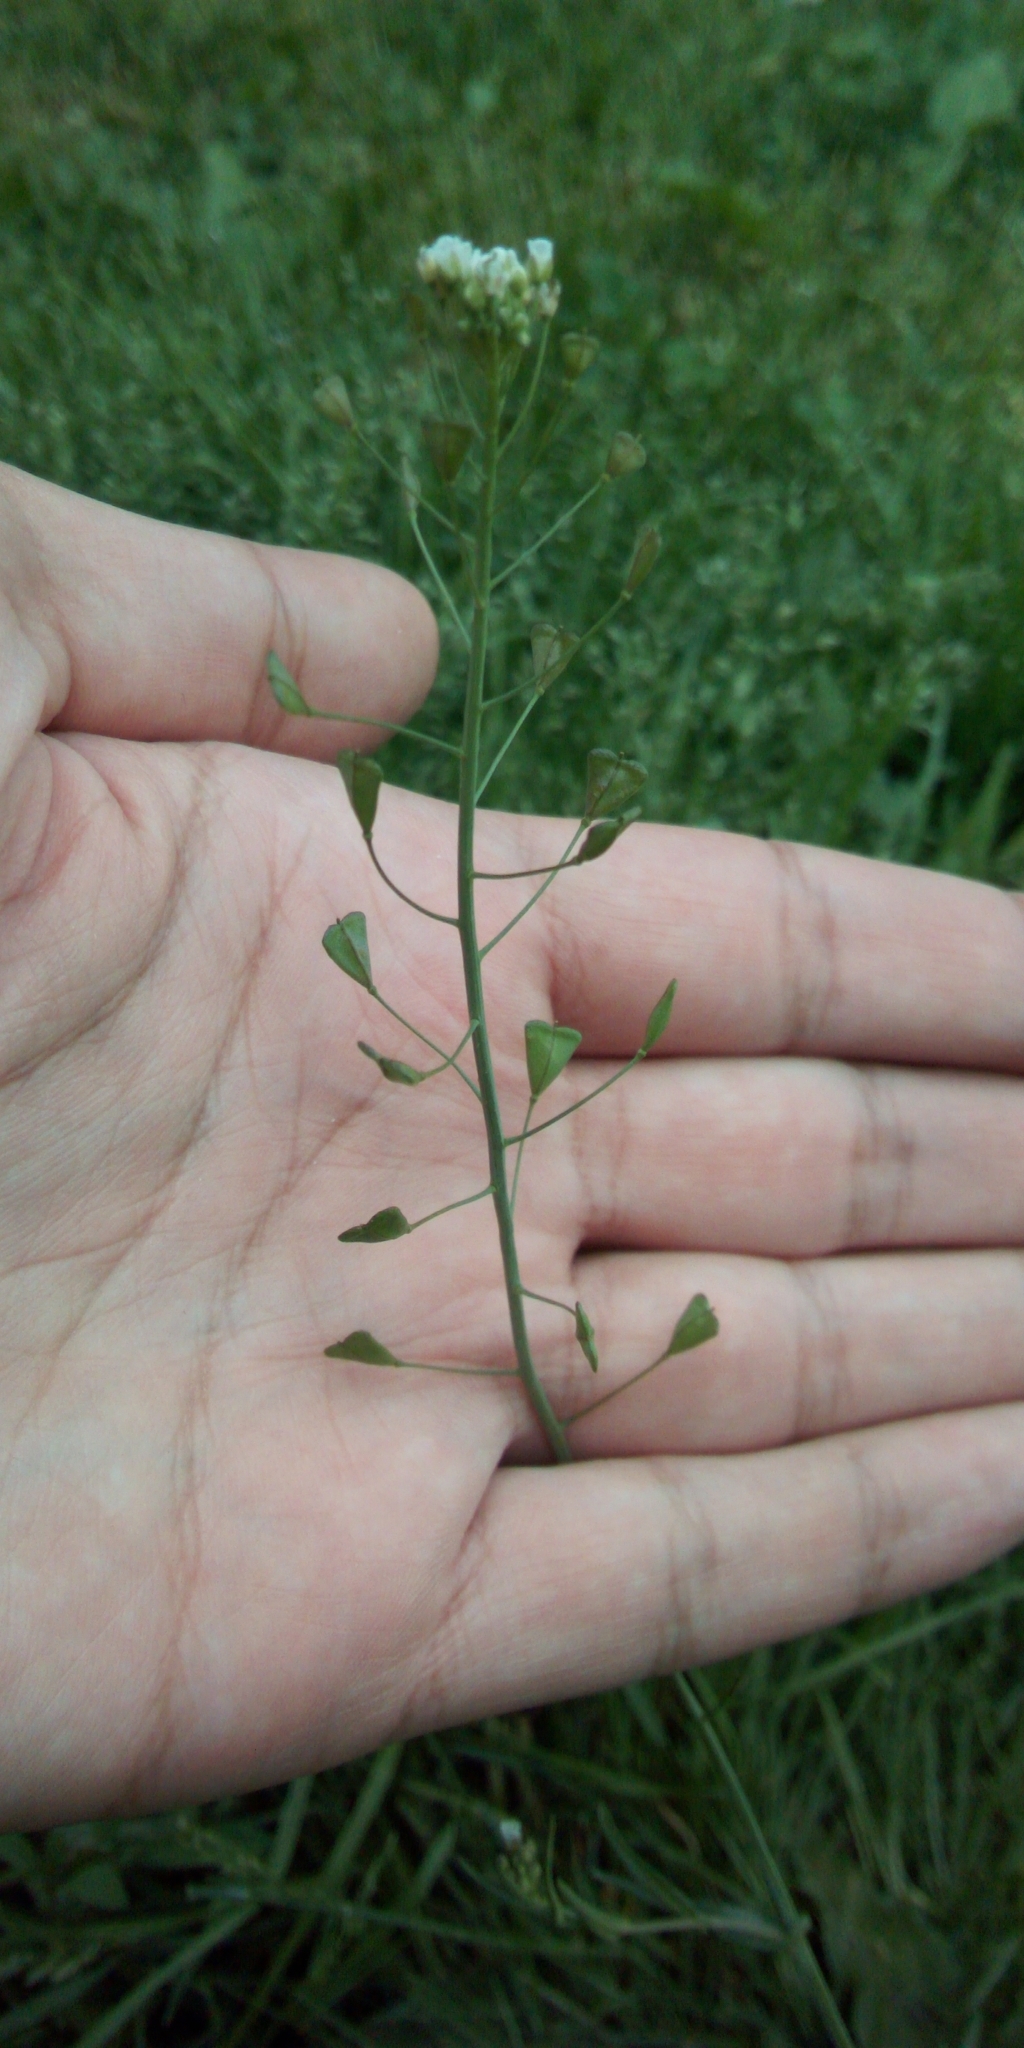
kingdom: Plantae
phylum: Tracheophyta
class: Magnoliopsida
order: Brassicales
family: Brassicaceae
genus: Capsella
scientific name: Capsella bursa-pastoris
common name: Shepherd's purse
